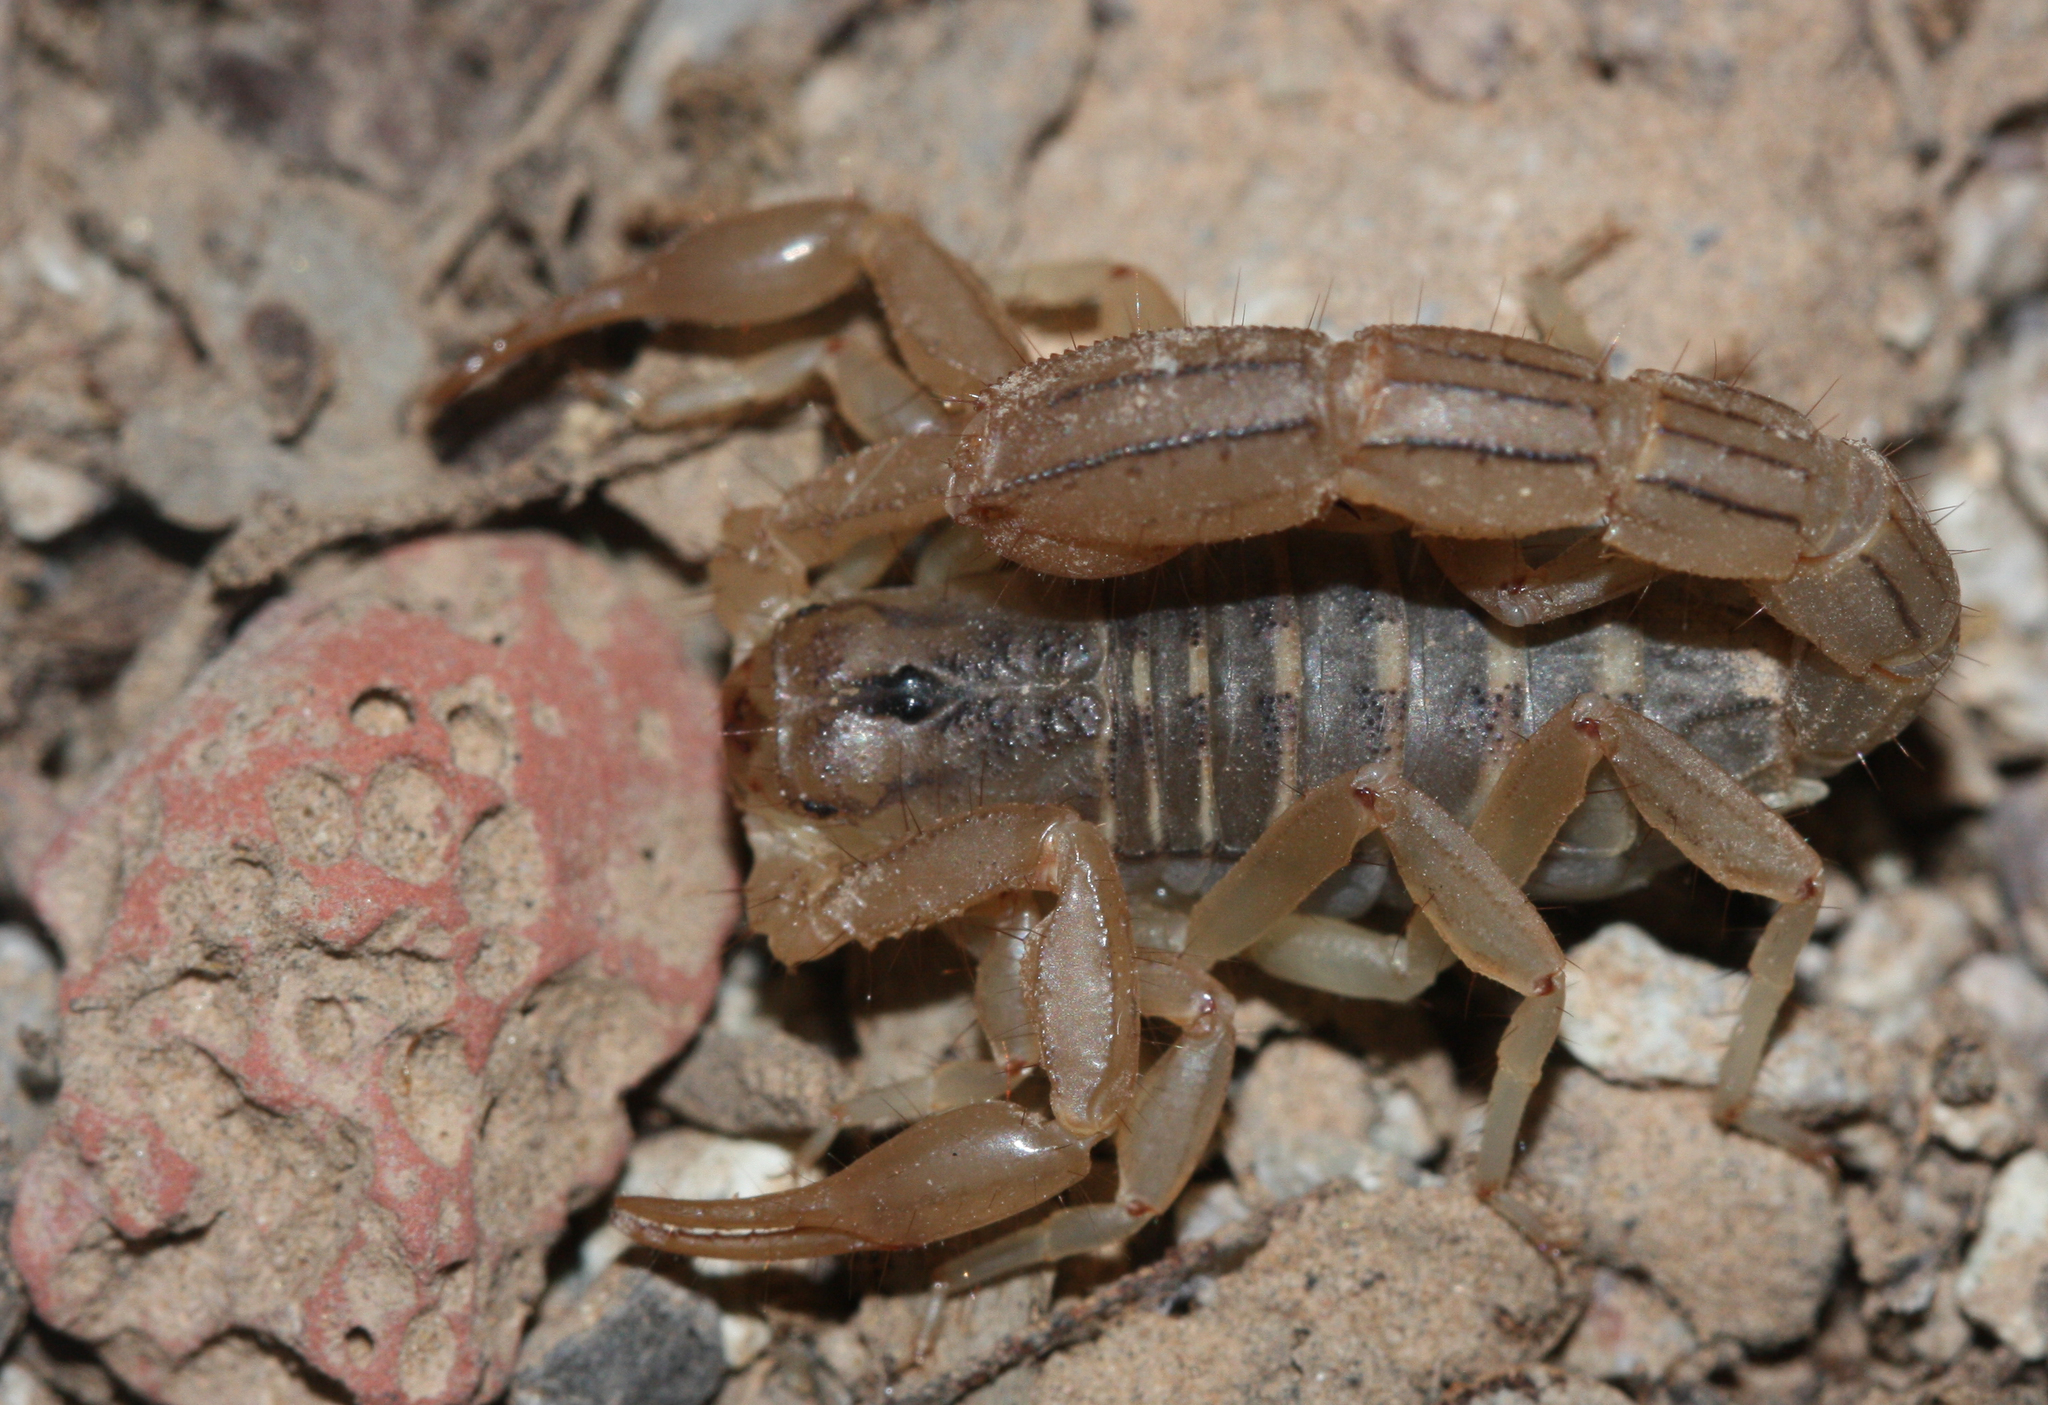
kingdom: Animalia
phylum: Arthropoda
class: Arachnida
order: Scorpiones
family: Vaejovidae
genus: Paravaejovis
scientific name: Paravaejovis spinigerus
